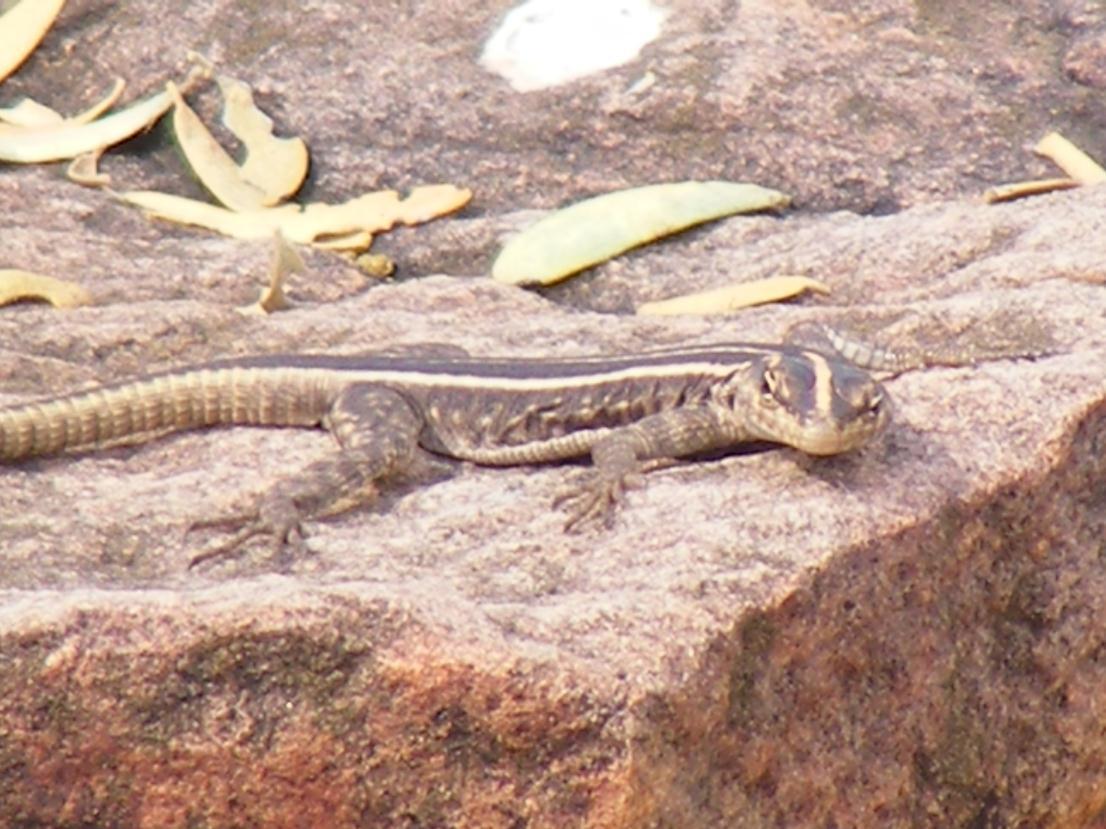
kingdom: Animalia
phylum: Chordata
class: Squamata
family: Cordylidae
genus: Platysaurus
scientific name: Platysaurus intermedius
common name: Common flat lizard
